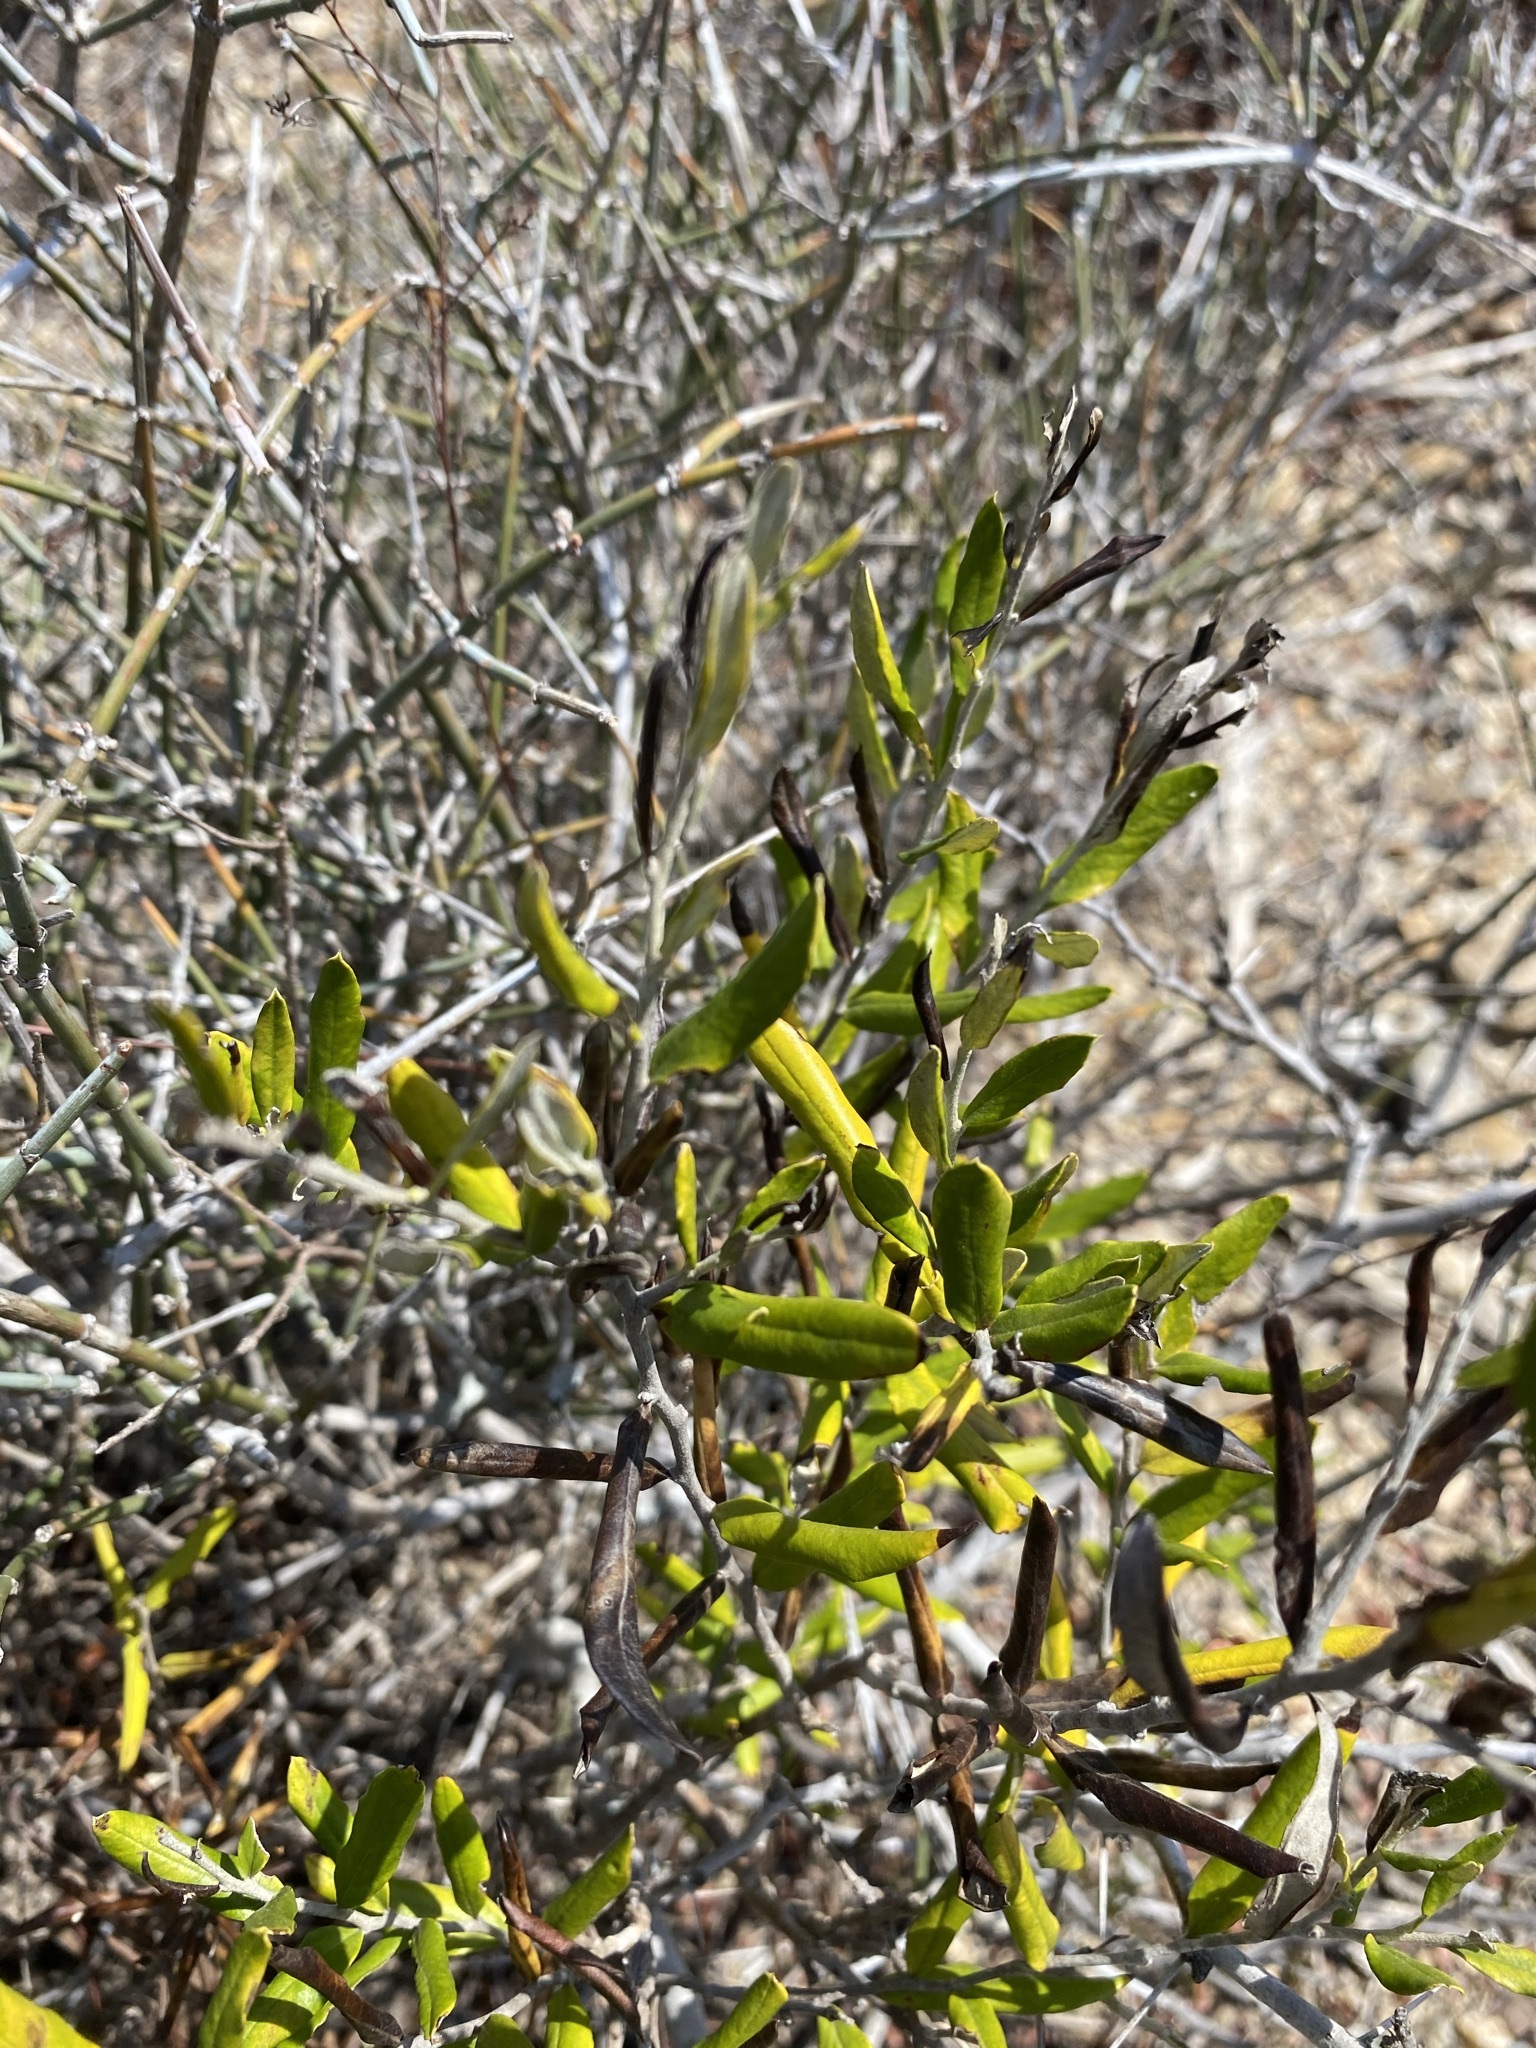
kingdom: Plantae
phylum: Tracheophyta
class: Magnoliopsida
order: Asterales
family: Asteraceae
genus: Nahuatlea
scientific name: Nahuatlea hypoleuca
